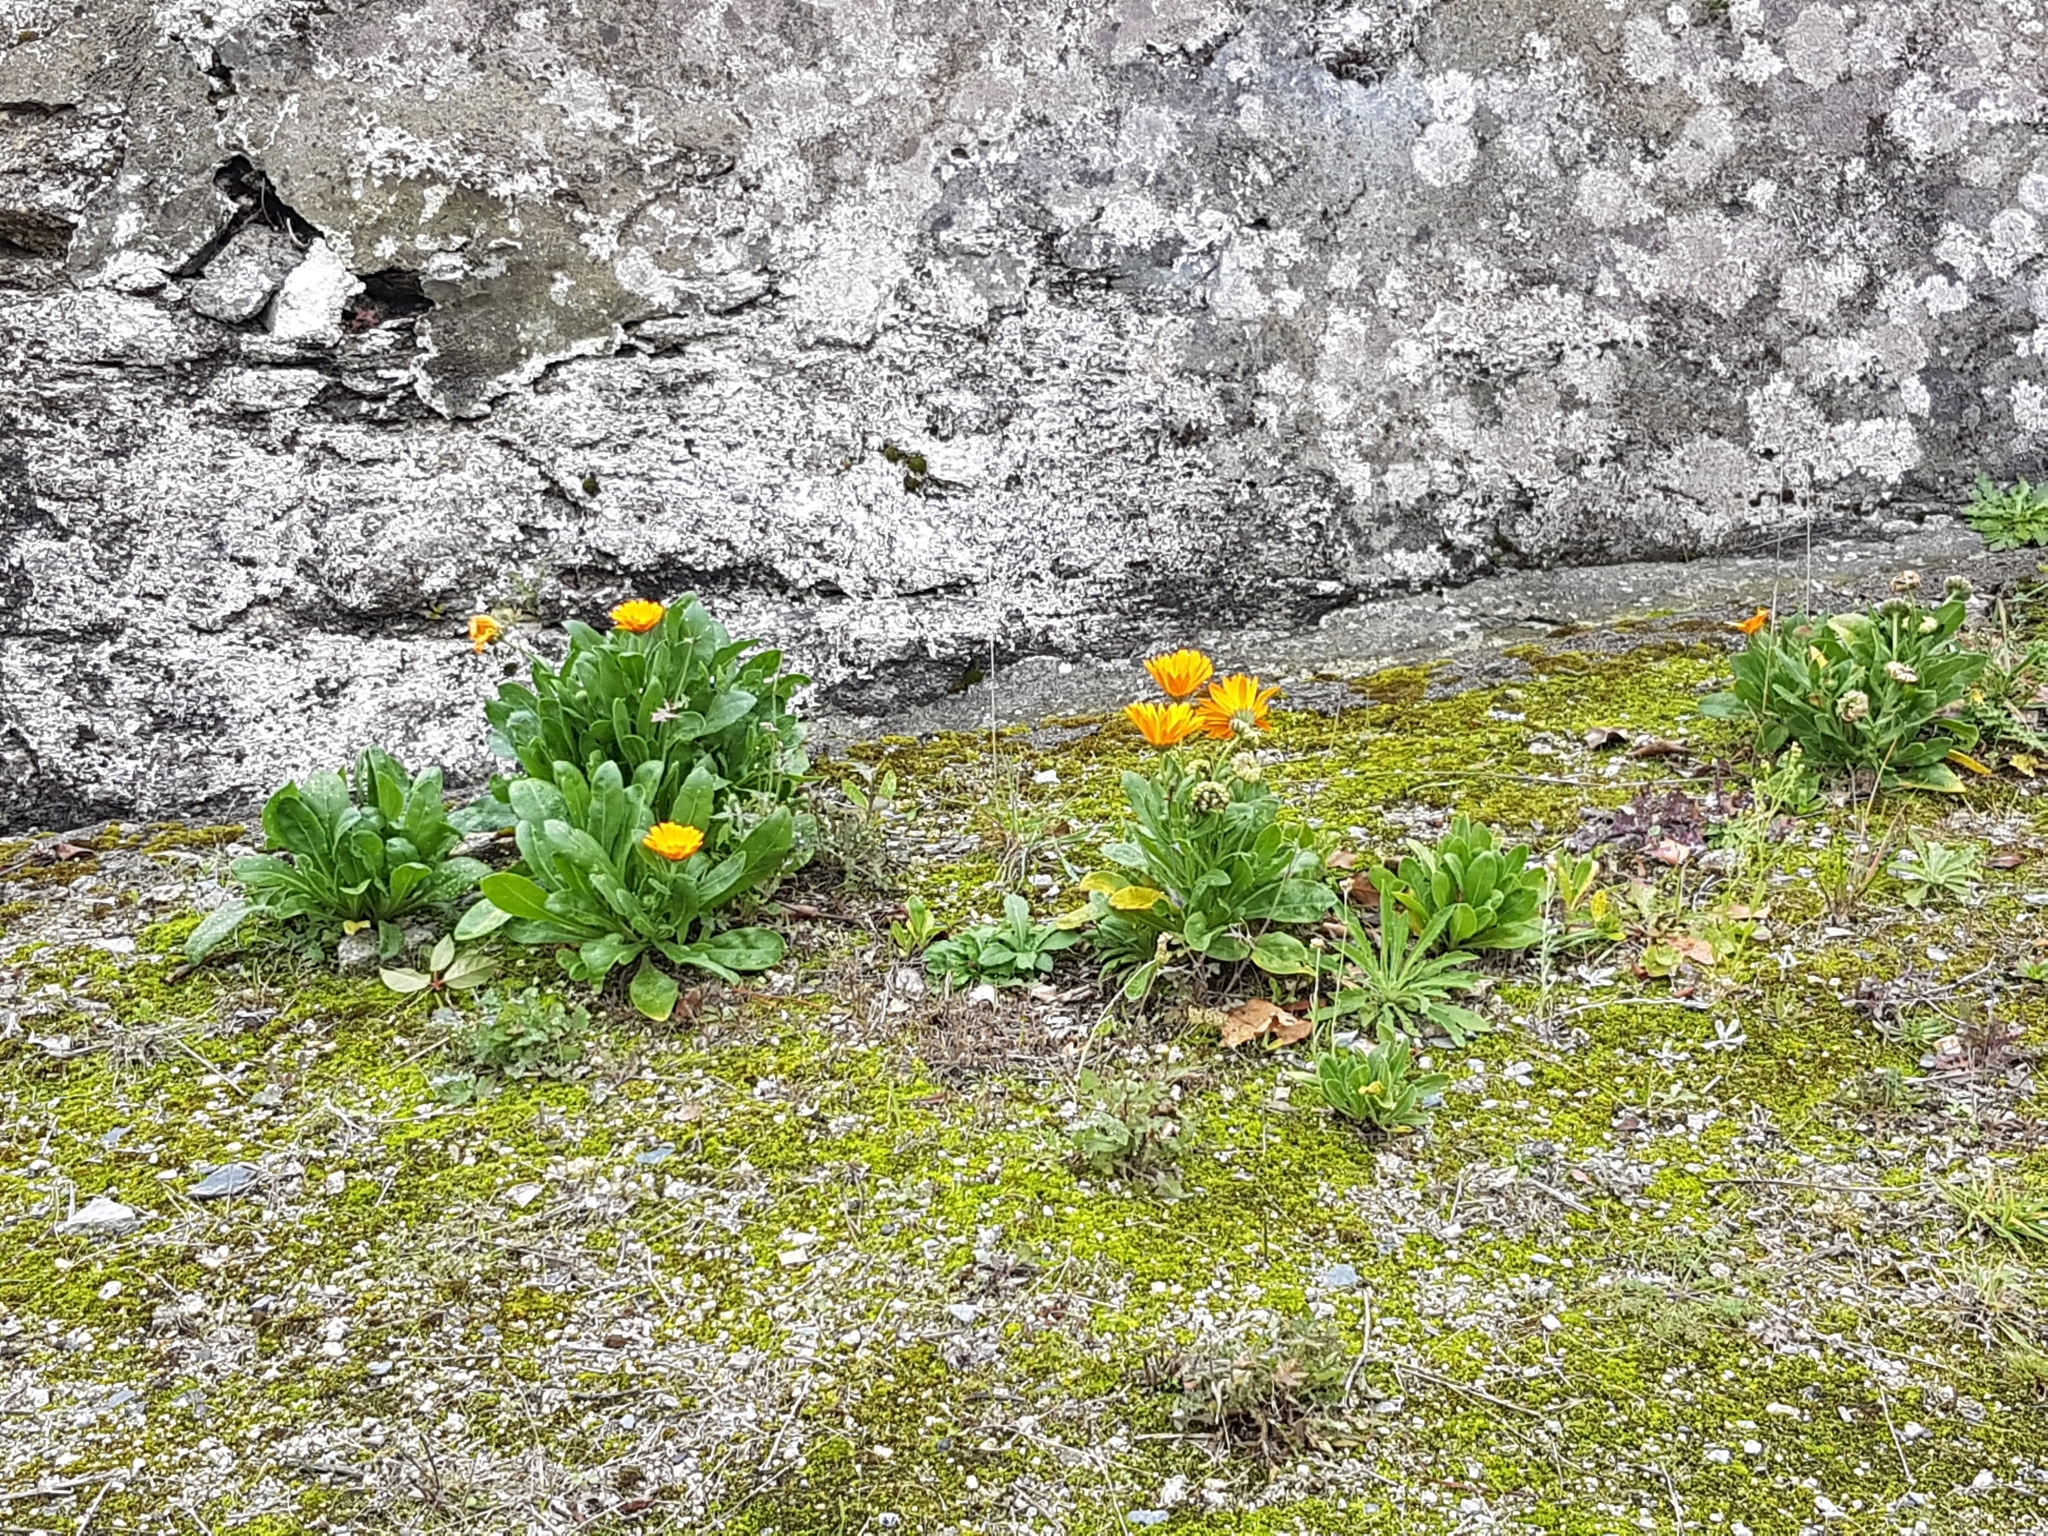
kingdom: Plantae
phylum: Tracheophyta
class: Magnoliopsida
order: Asterales
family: Asteraceae
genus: Calendula
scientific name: Calendula officinalis
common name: Pot marigold
